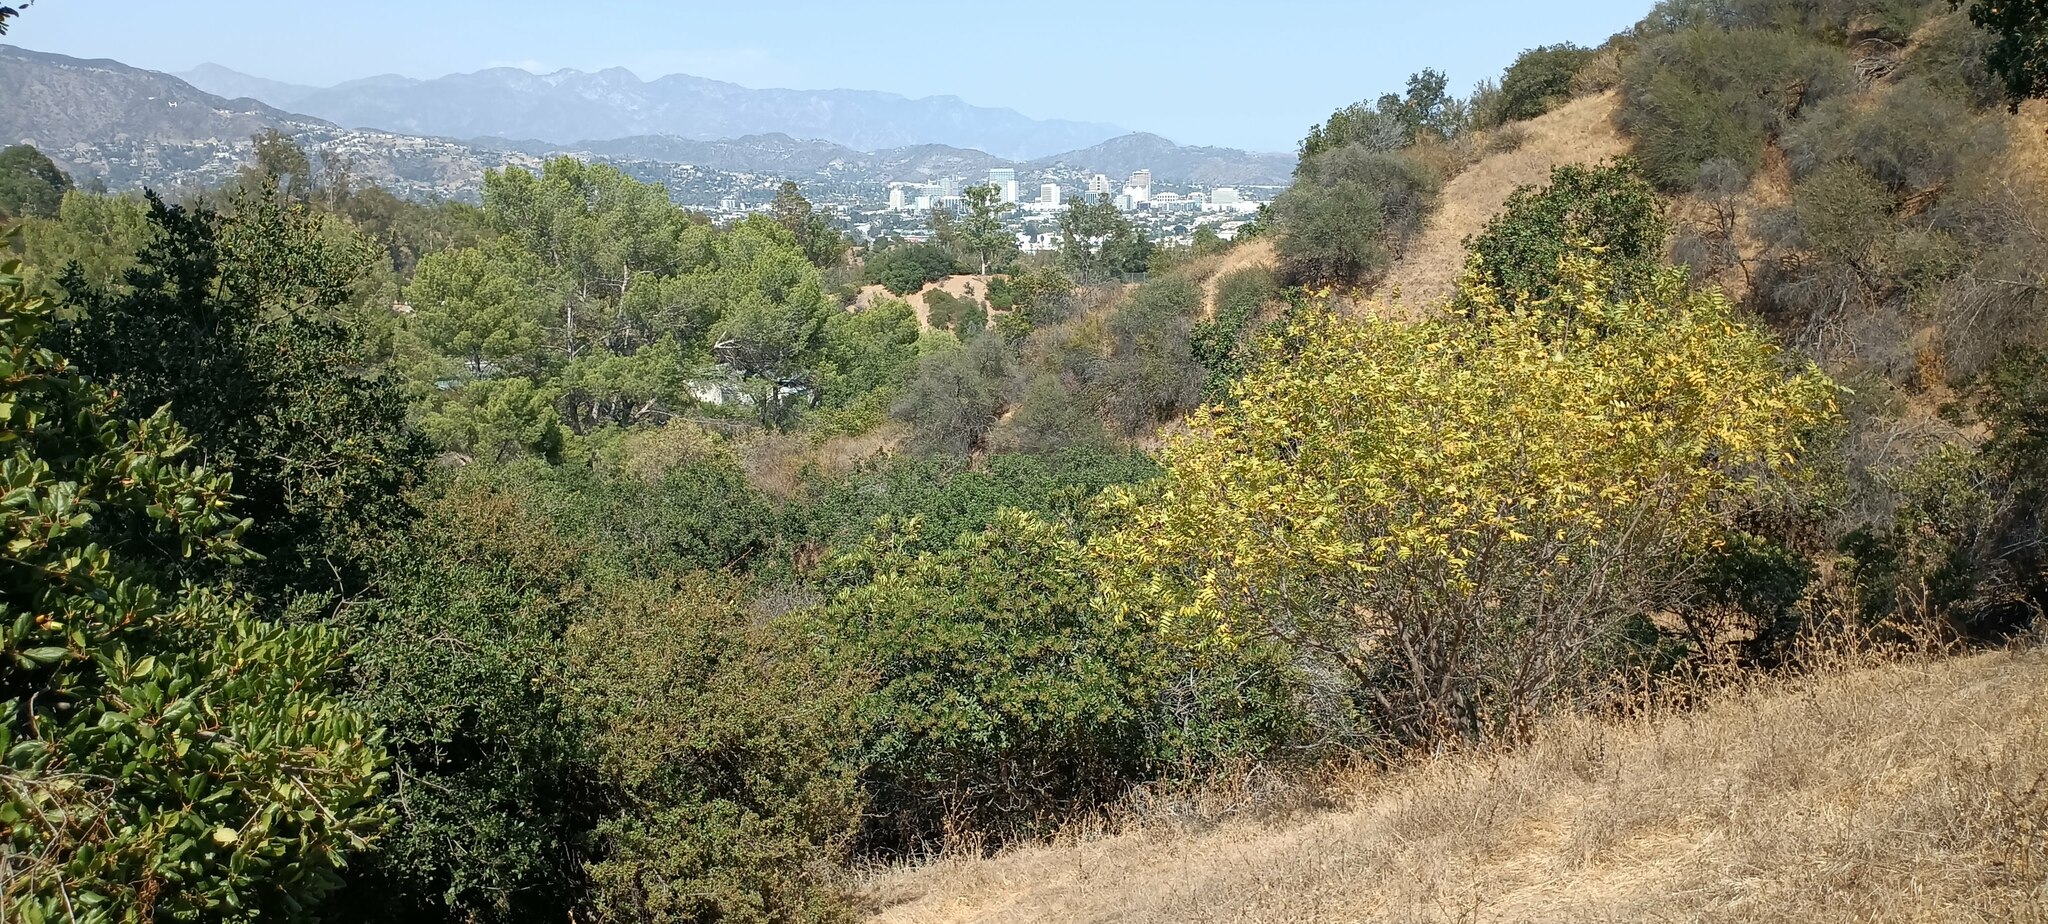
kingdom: Plantae
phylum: Tracheophyta
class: Magnoliopsida
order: Fagales
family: Juglandaceae
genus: Juglans
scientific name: Juglans californica
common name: Southern california black walnut
